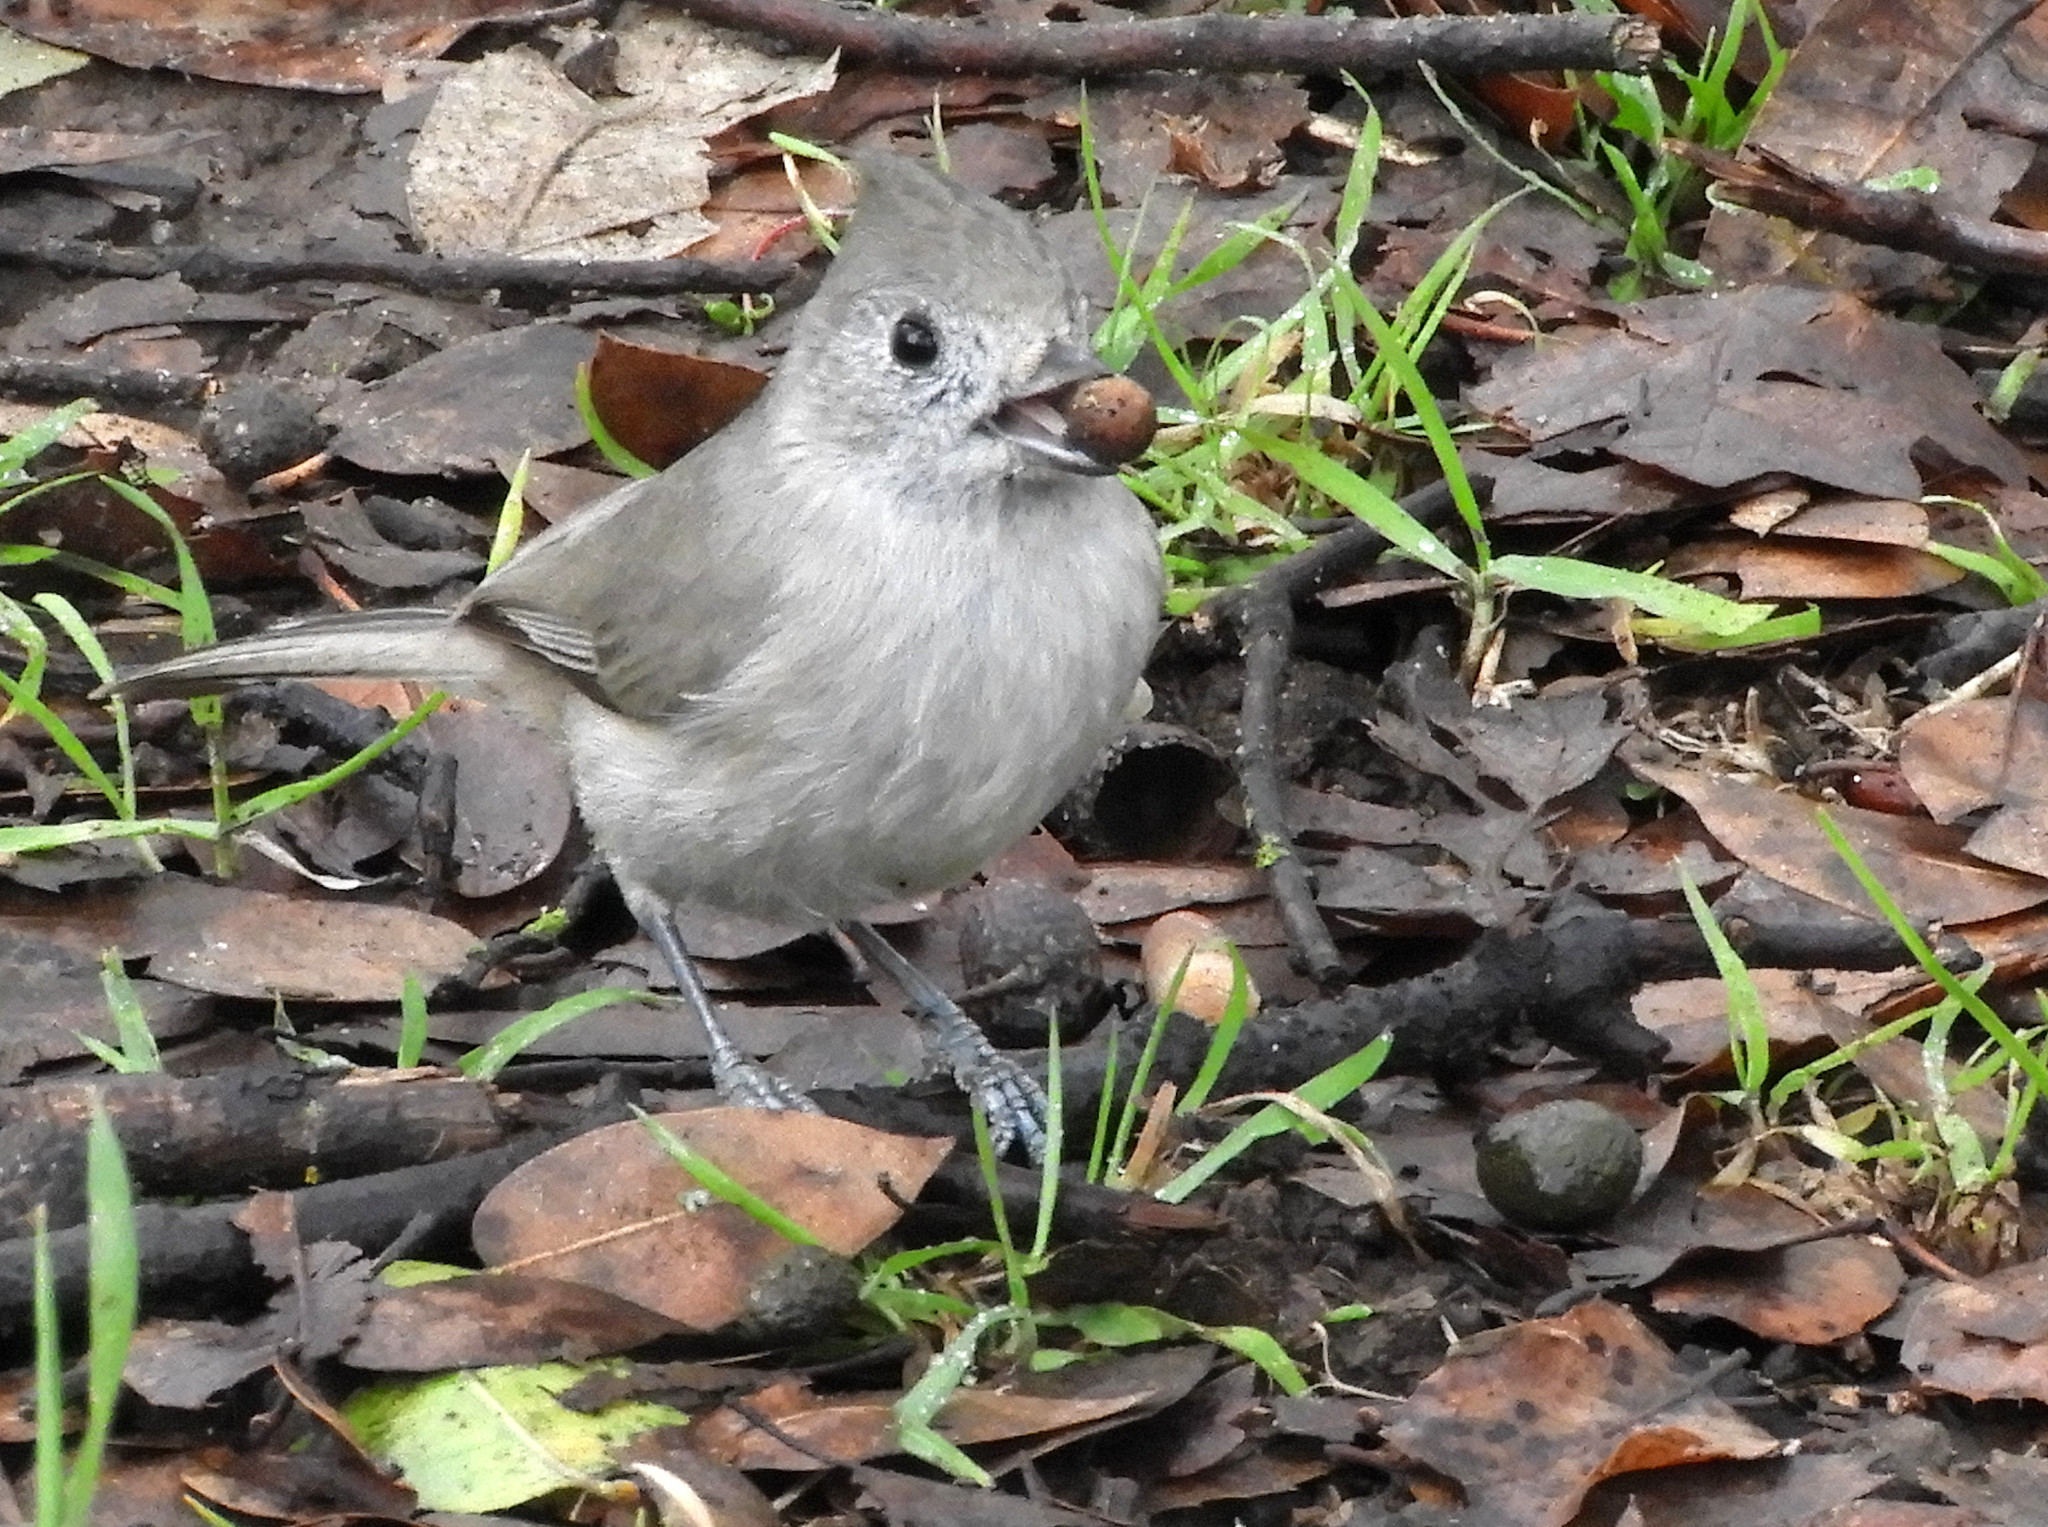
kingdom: Animalia
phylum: Chordata
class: Aves
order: Passeriformes
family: Paridae
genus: Baeolophus
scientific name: Baeolophus inornatus
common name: Oak titmouse
